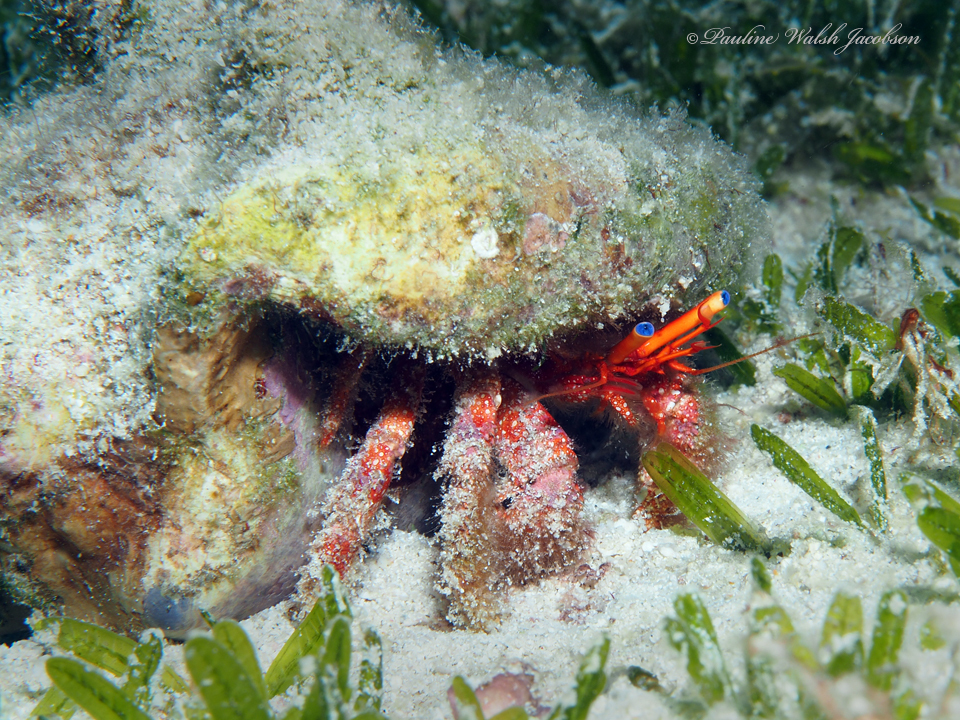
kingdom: Animalia
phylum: Arthropoda
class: Malacostraca
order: Decapoda
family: Diogenidae
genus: Paguristes
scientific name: Paguristes sericeus
